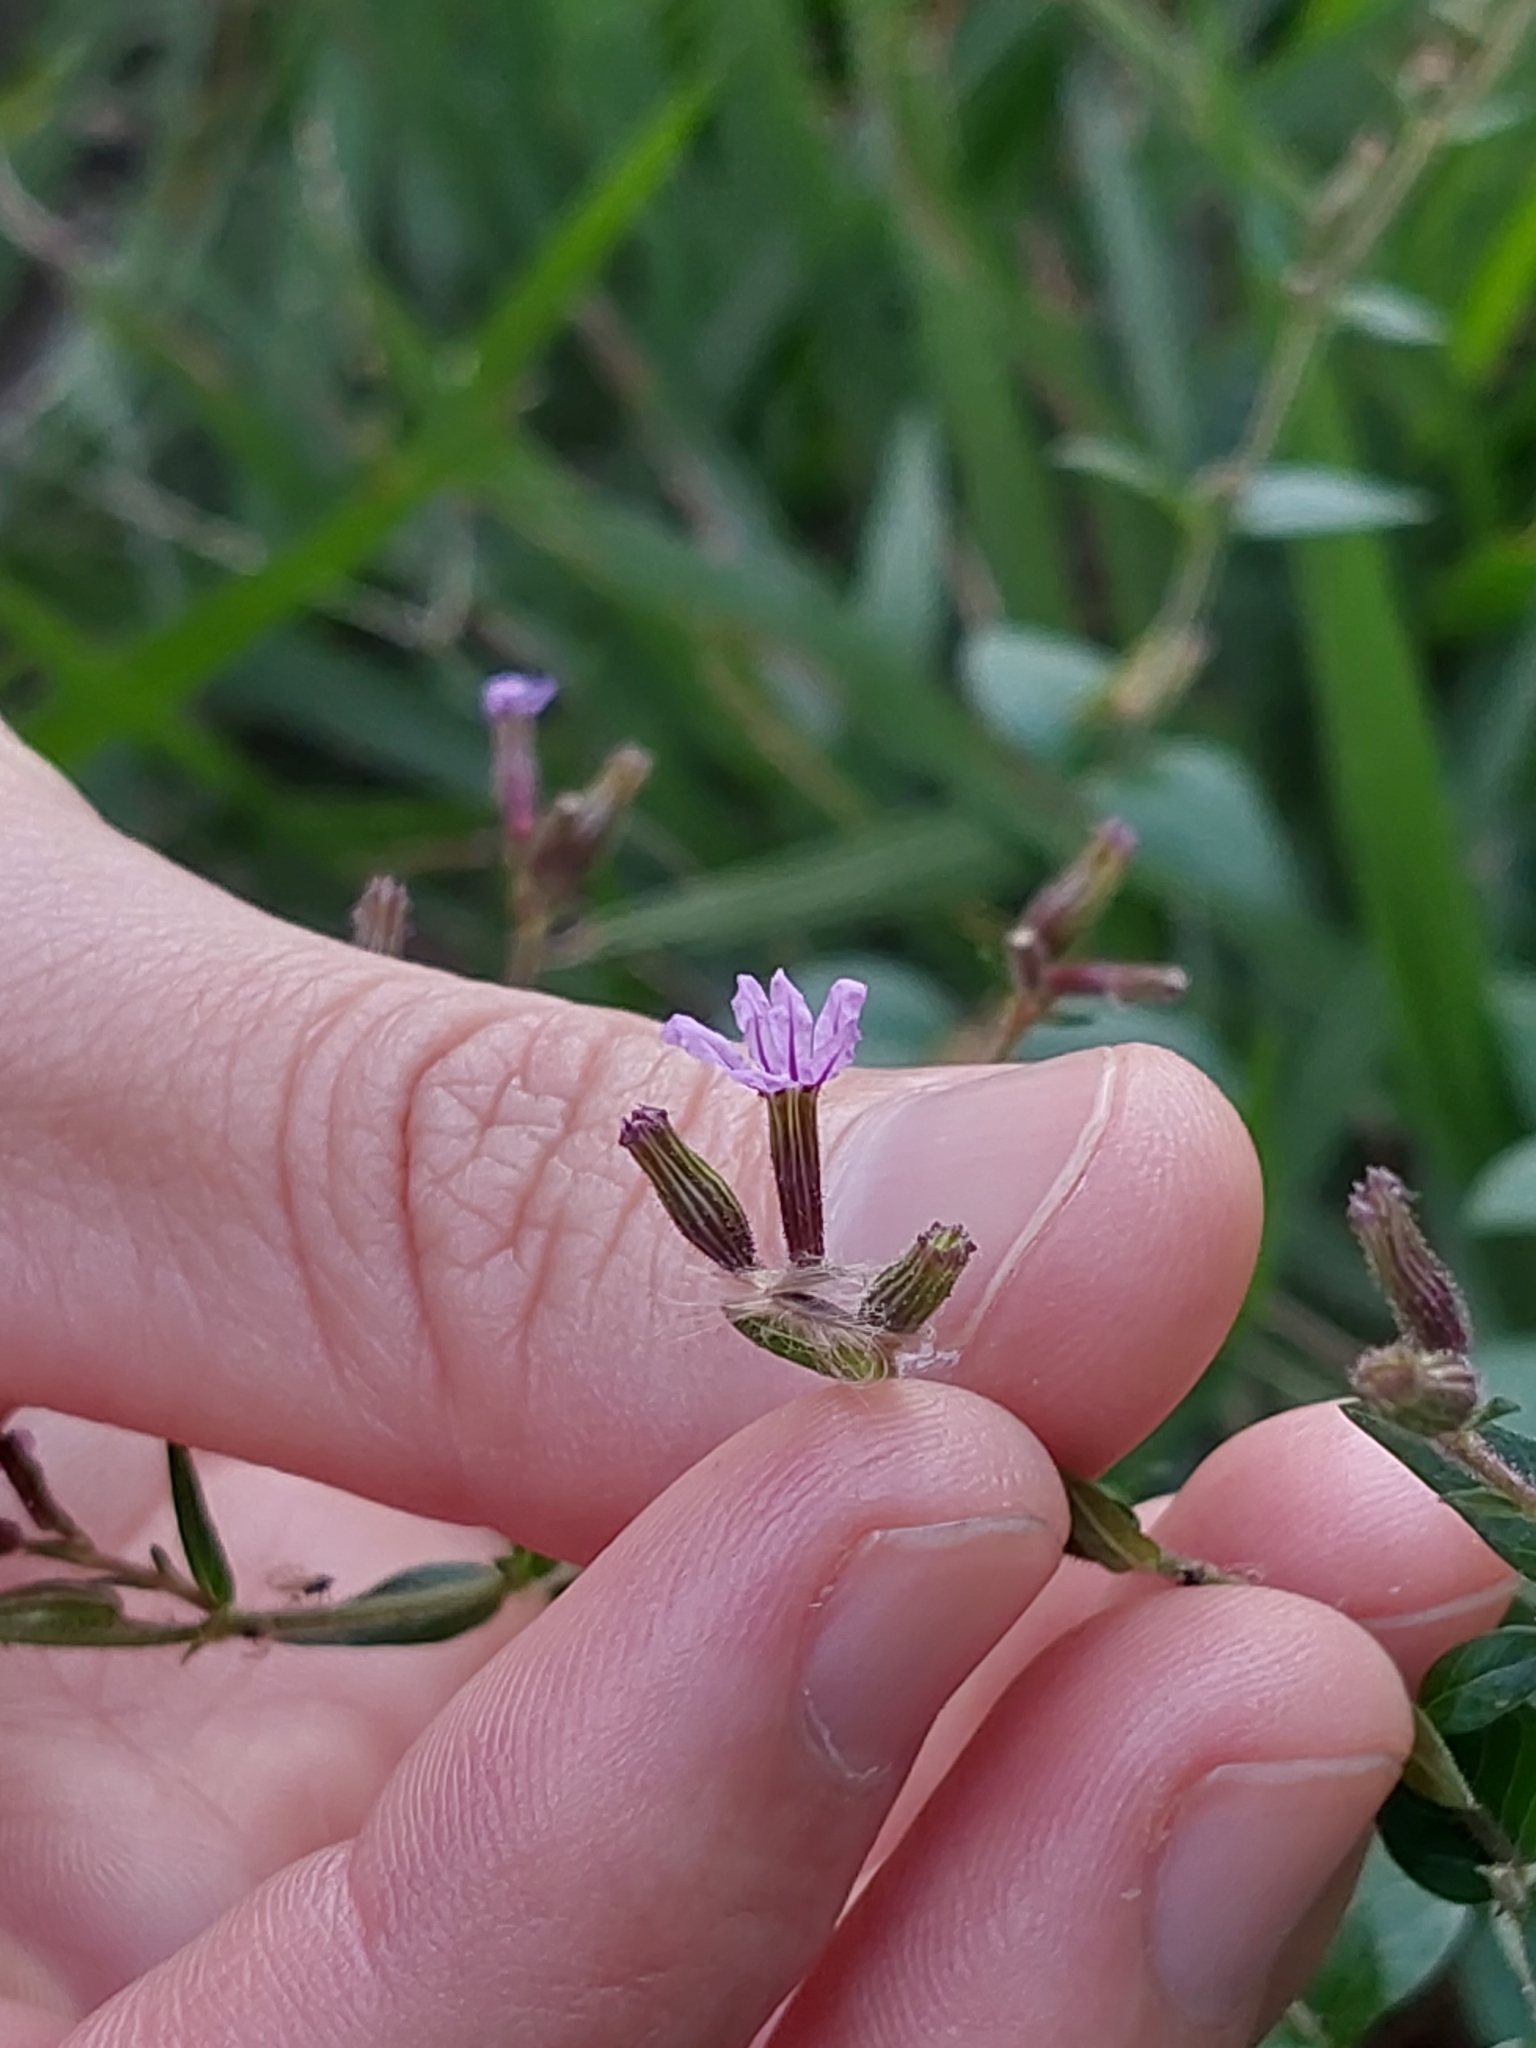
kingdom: Plantae
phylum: Tracheophyta
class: Magnoliopsida
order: Myrtales
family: Lythraceae
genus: Cuphea
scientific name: Cuphea calophylla
